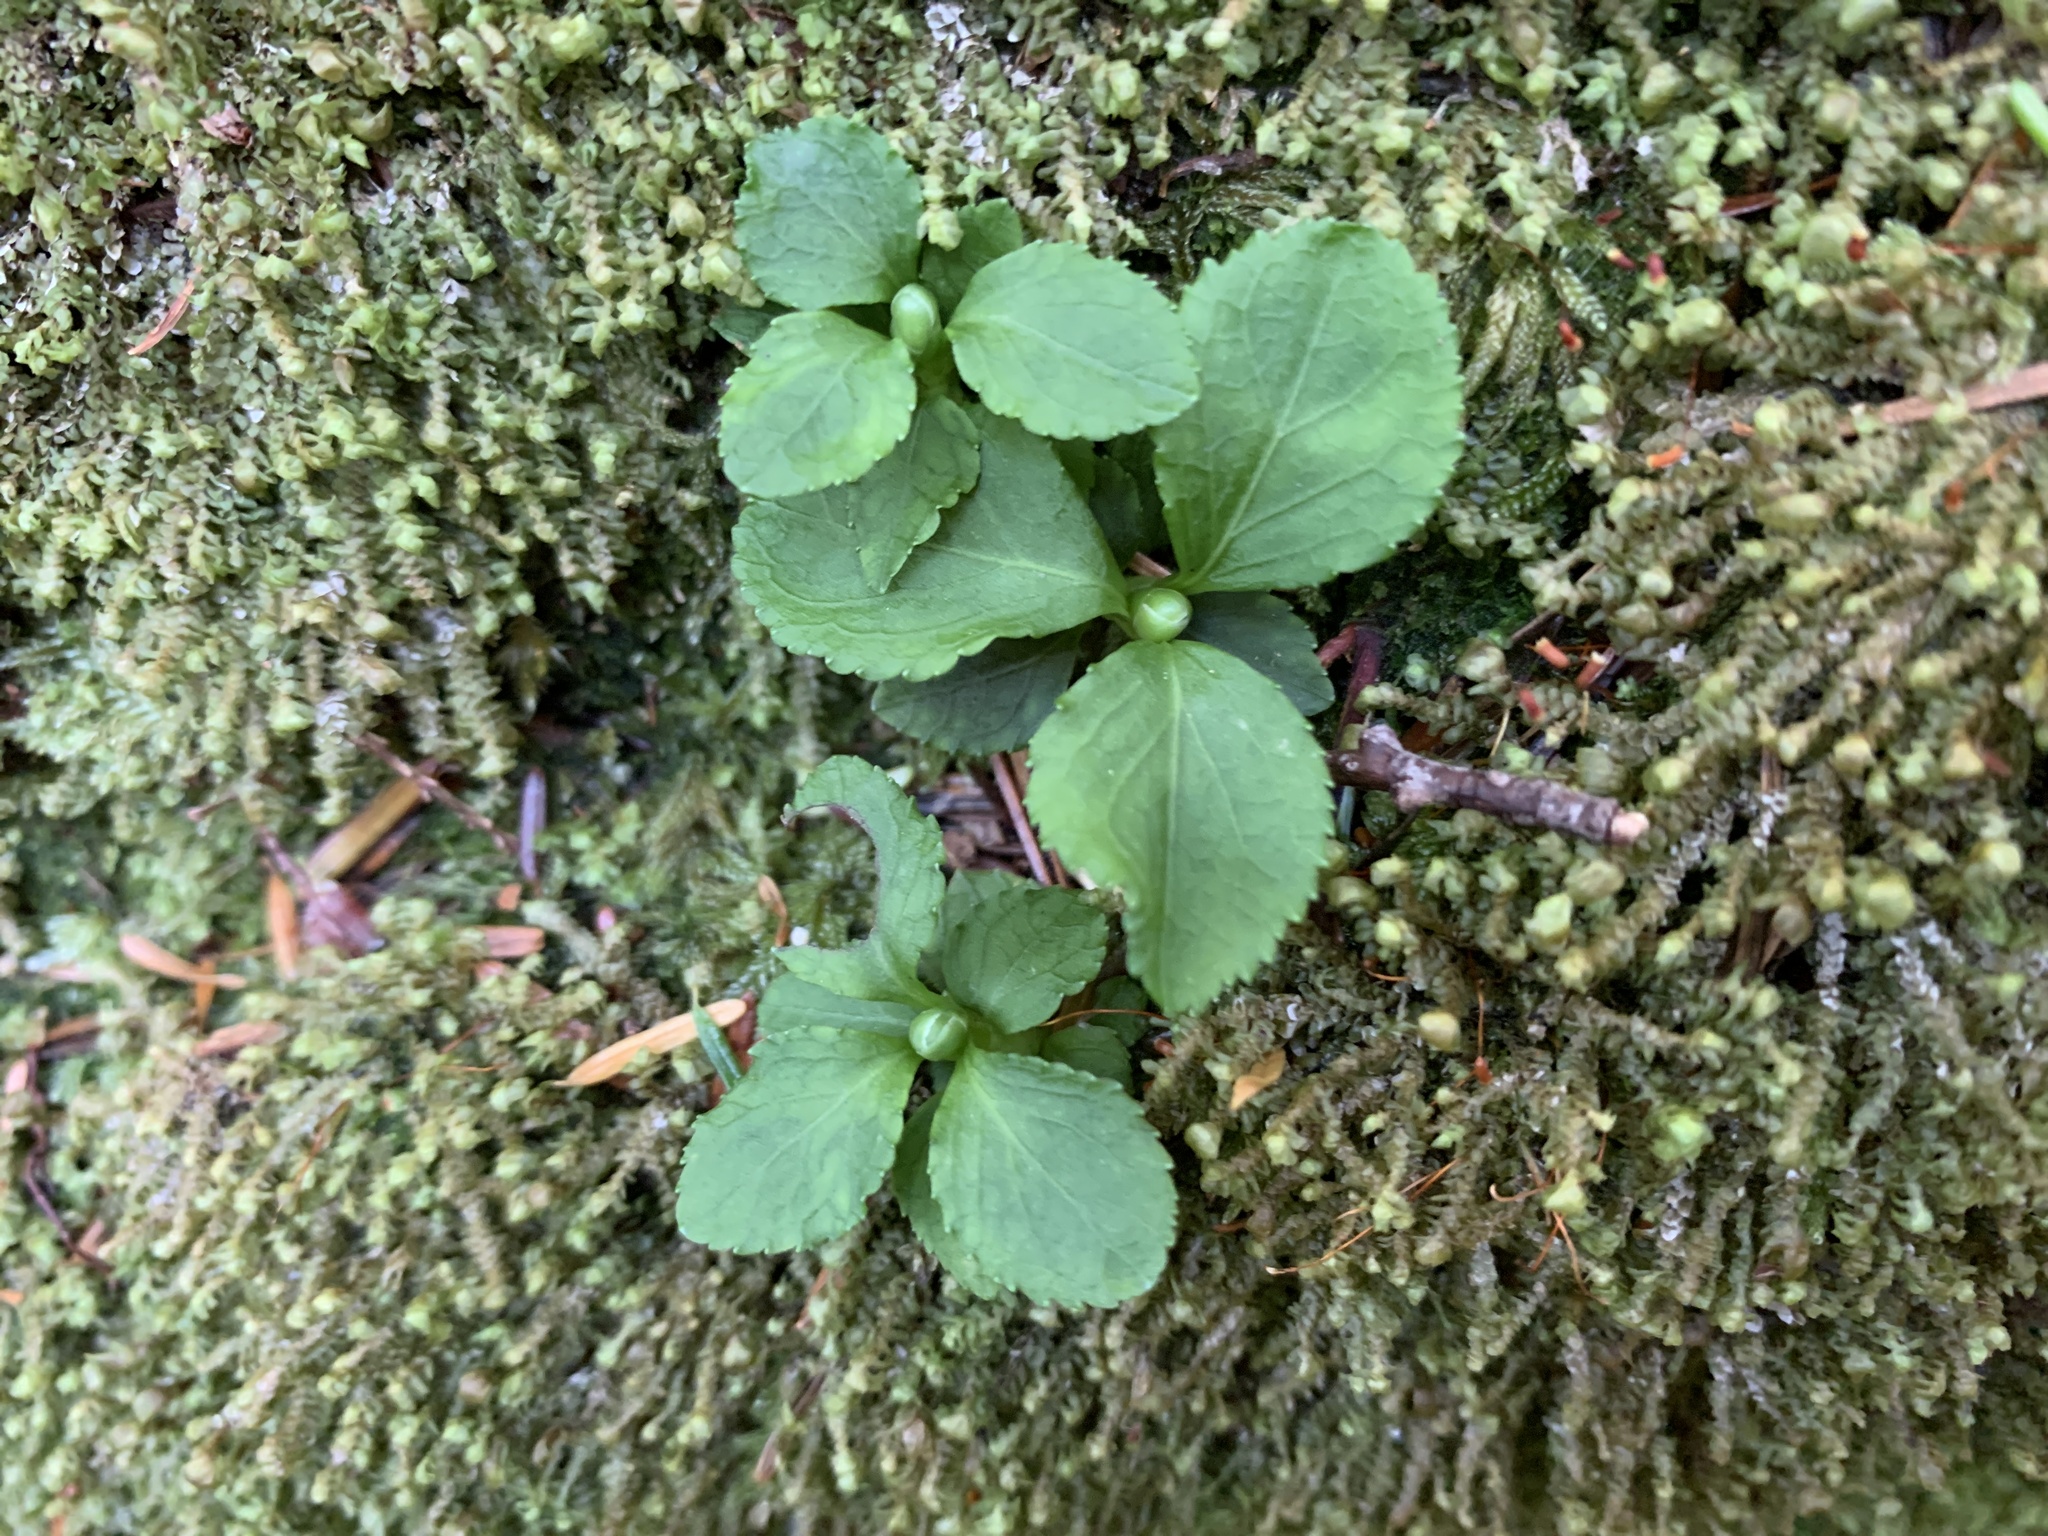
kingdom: Plantae
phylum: Tracheophyta
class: Magnoliopsida
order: Ericales
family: Ericaceae
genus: Moneses
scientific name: Moneses uniflora
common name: One-flowered wintergreen
